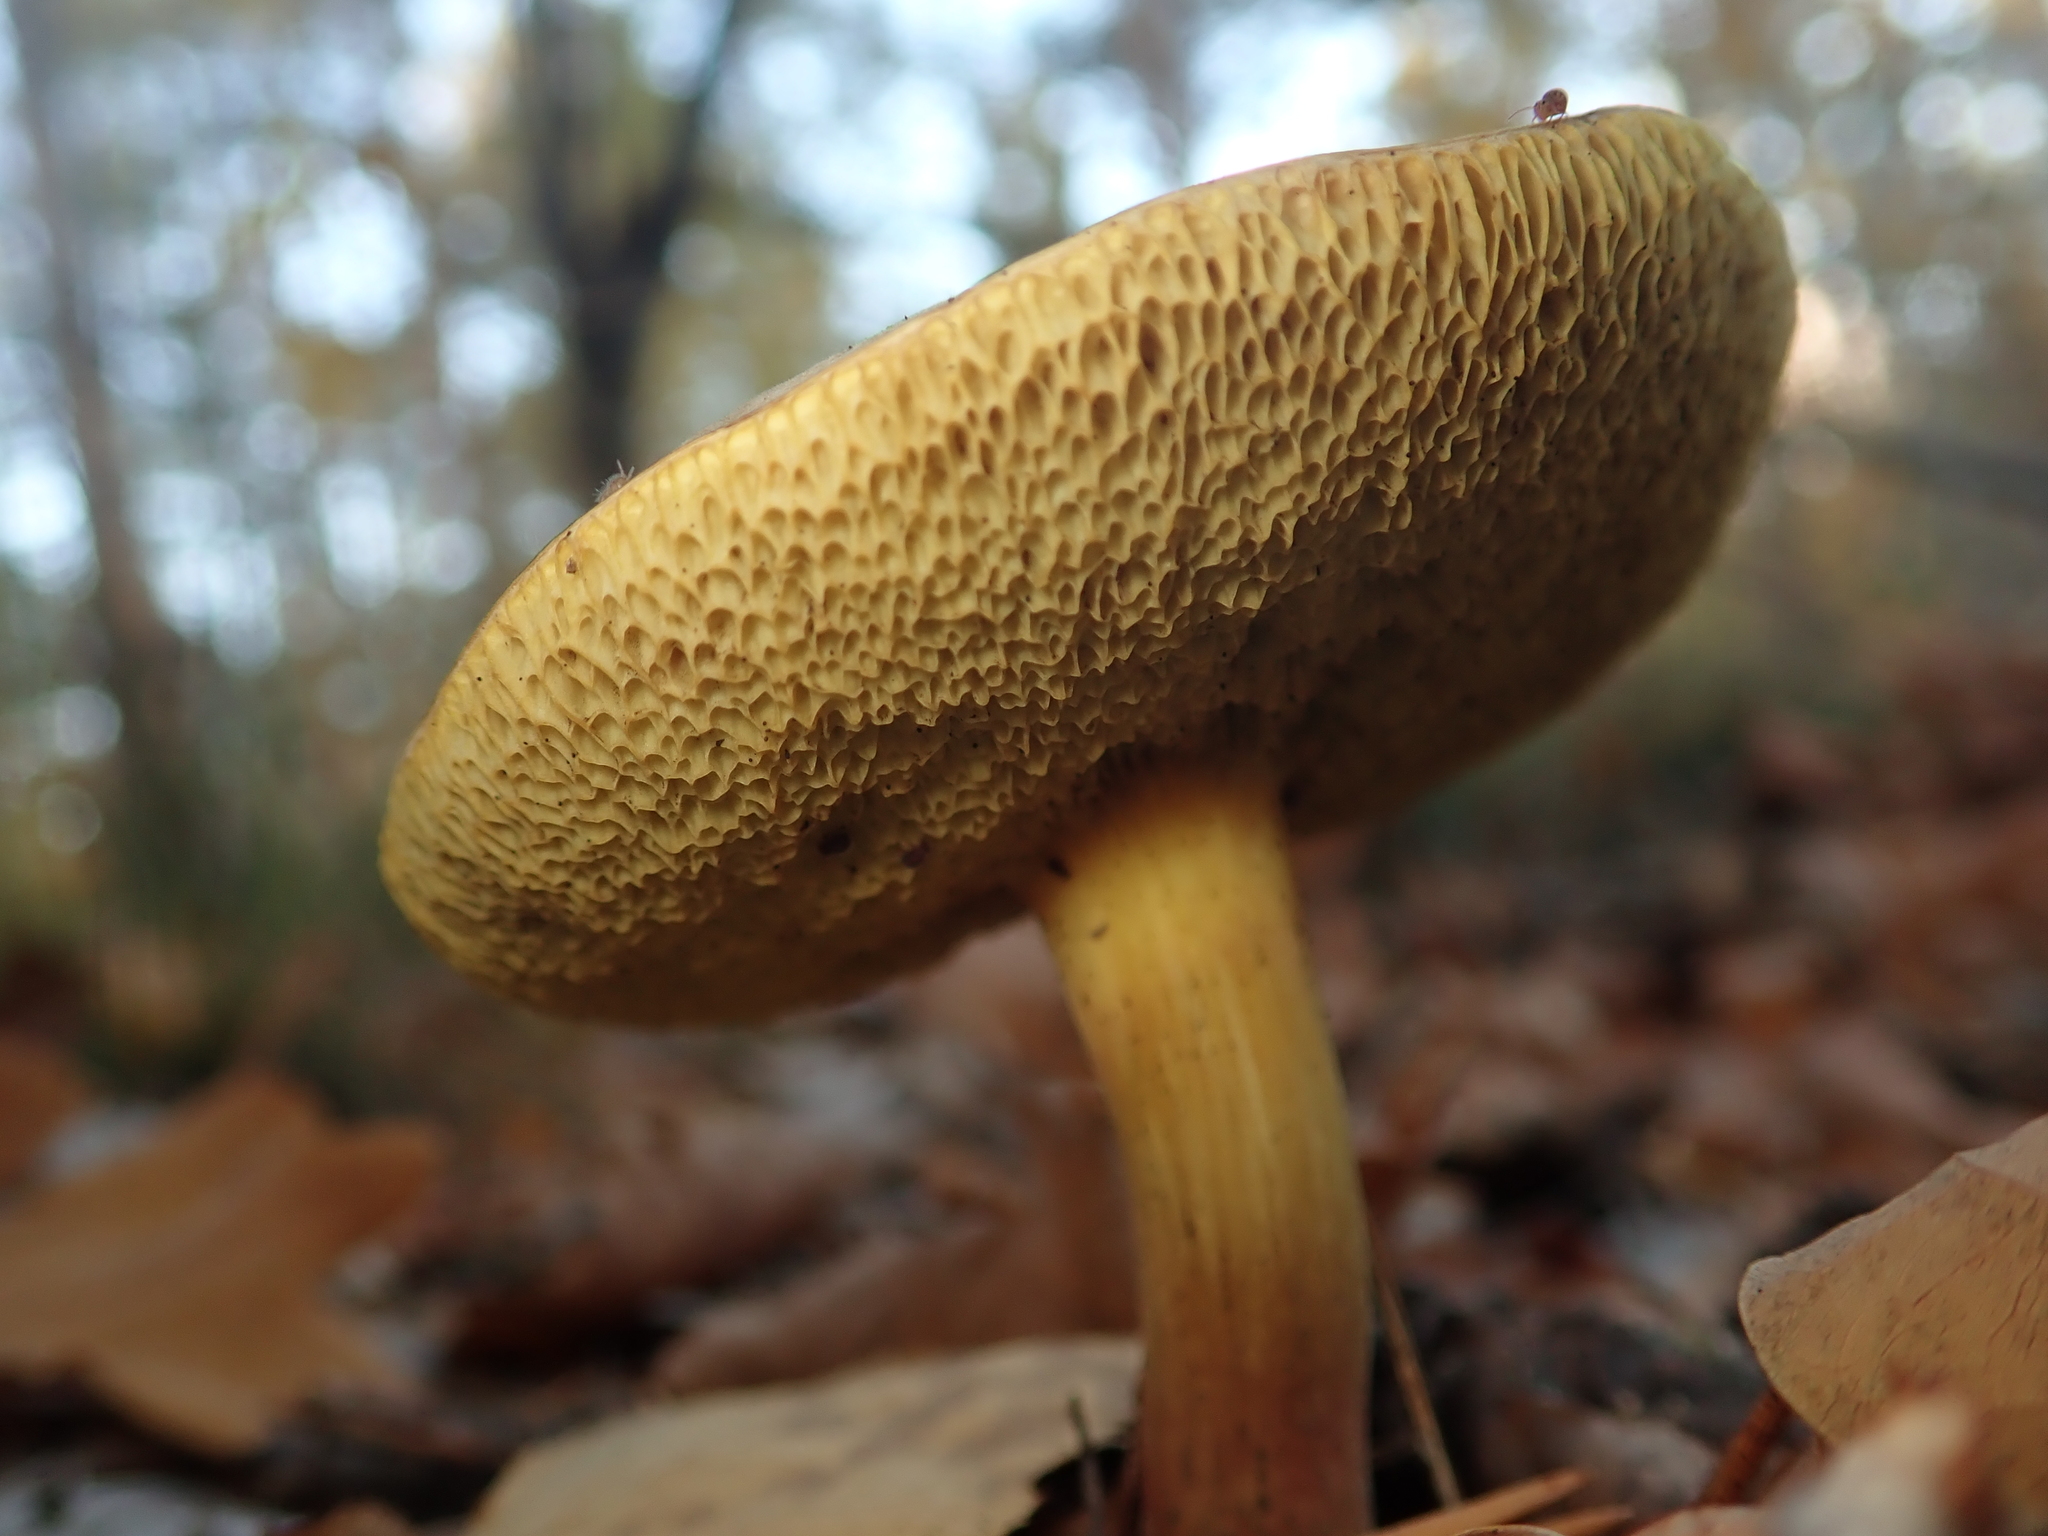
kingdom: Fungi
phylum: Basidiomycota
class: Agaricomycetes
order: Boletales
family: Boletaceae
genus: Xerocomus
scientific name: Xerocomus subtomentosus
